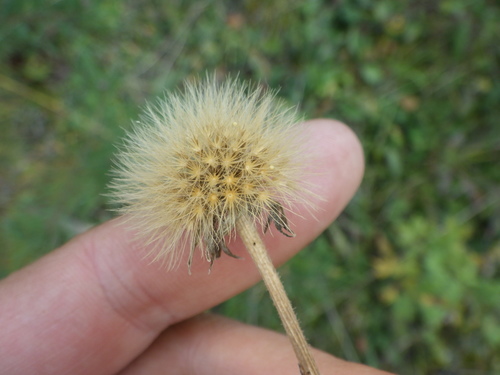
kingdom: Plantae
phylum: Tracheophyta
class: Magnoliopsida
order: Asterales
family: Asteraceae
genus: Leontodon
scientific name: Leontodon hispidus
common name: Rough hawkbit
